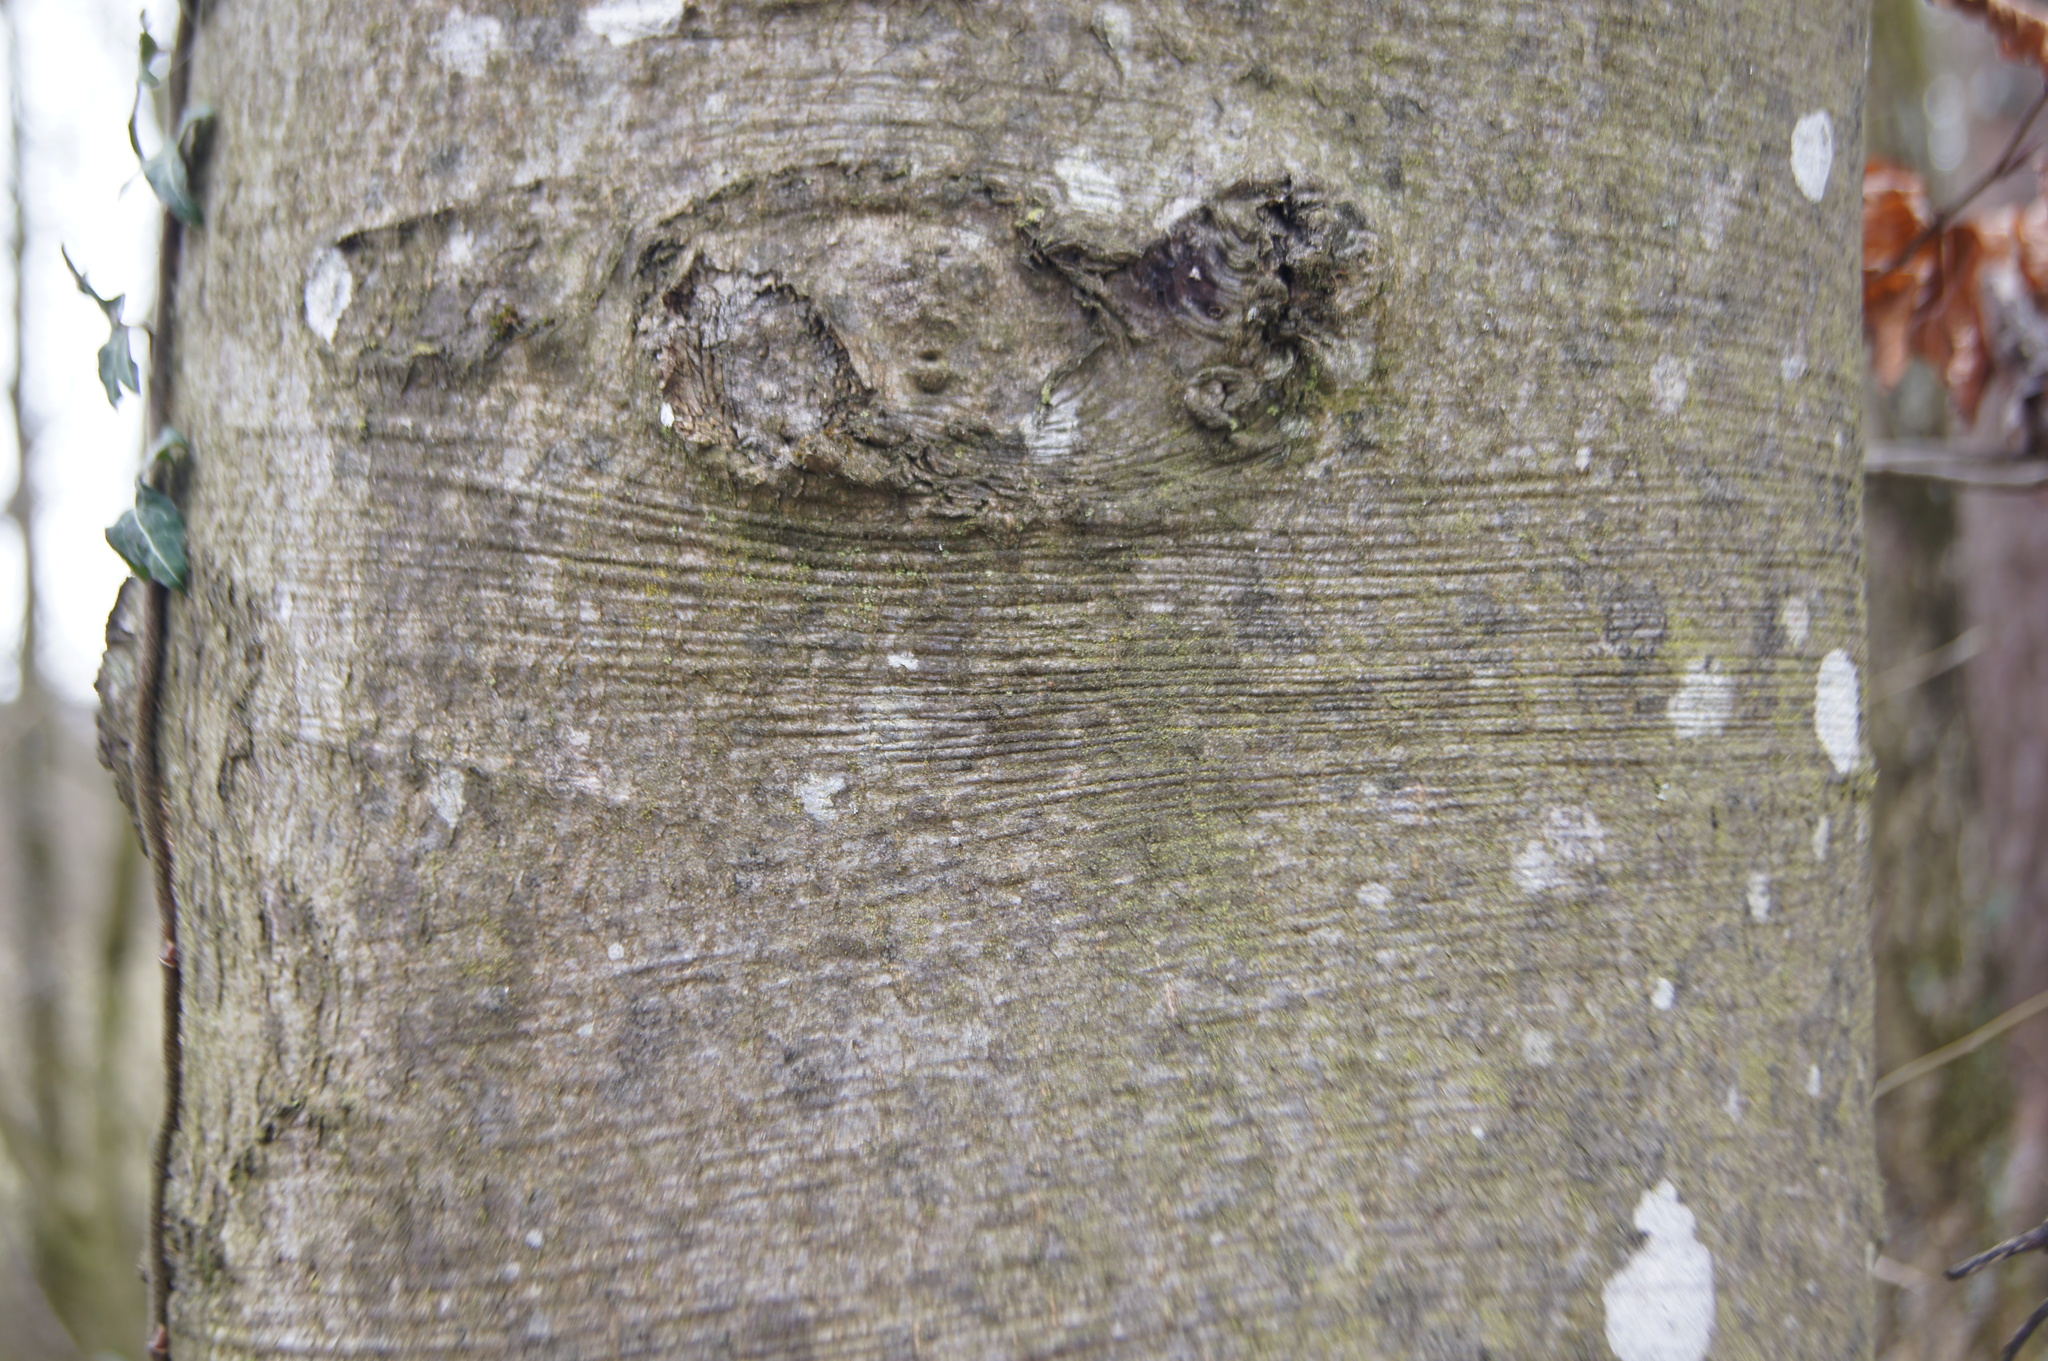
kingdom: Plantae
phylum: Tracheophyta
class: Magnoliopsida
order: Fagales
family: Fagaceae
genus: Fagus
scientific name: Fagus sylvatica
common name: Beech
